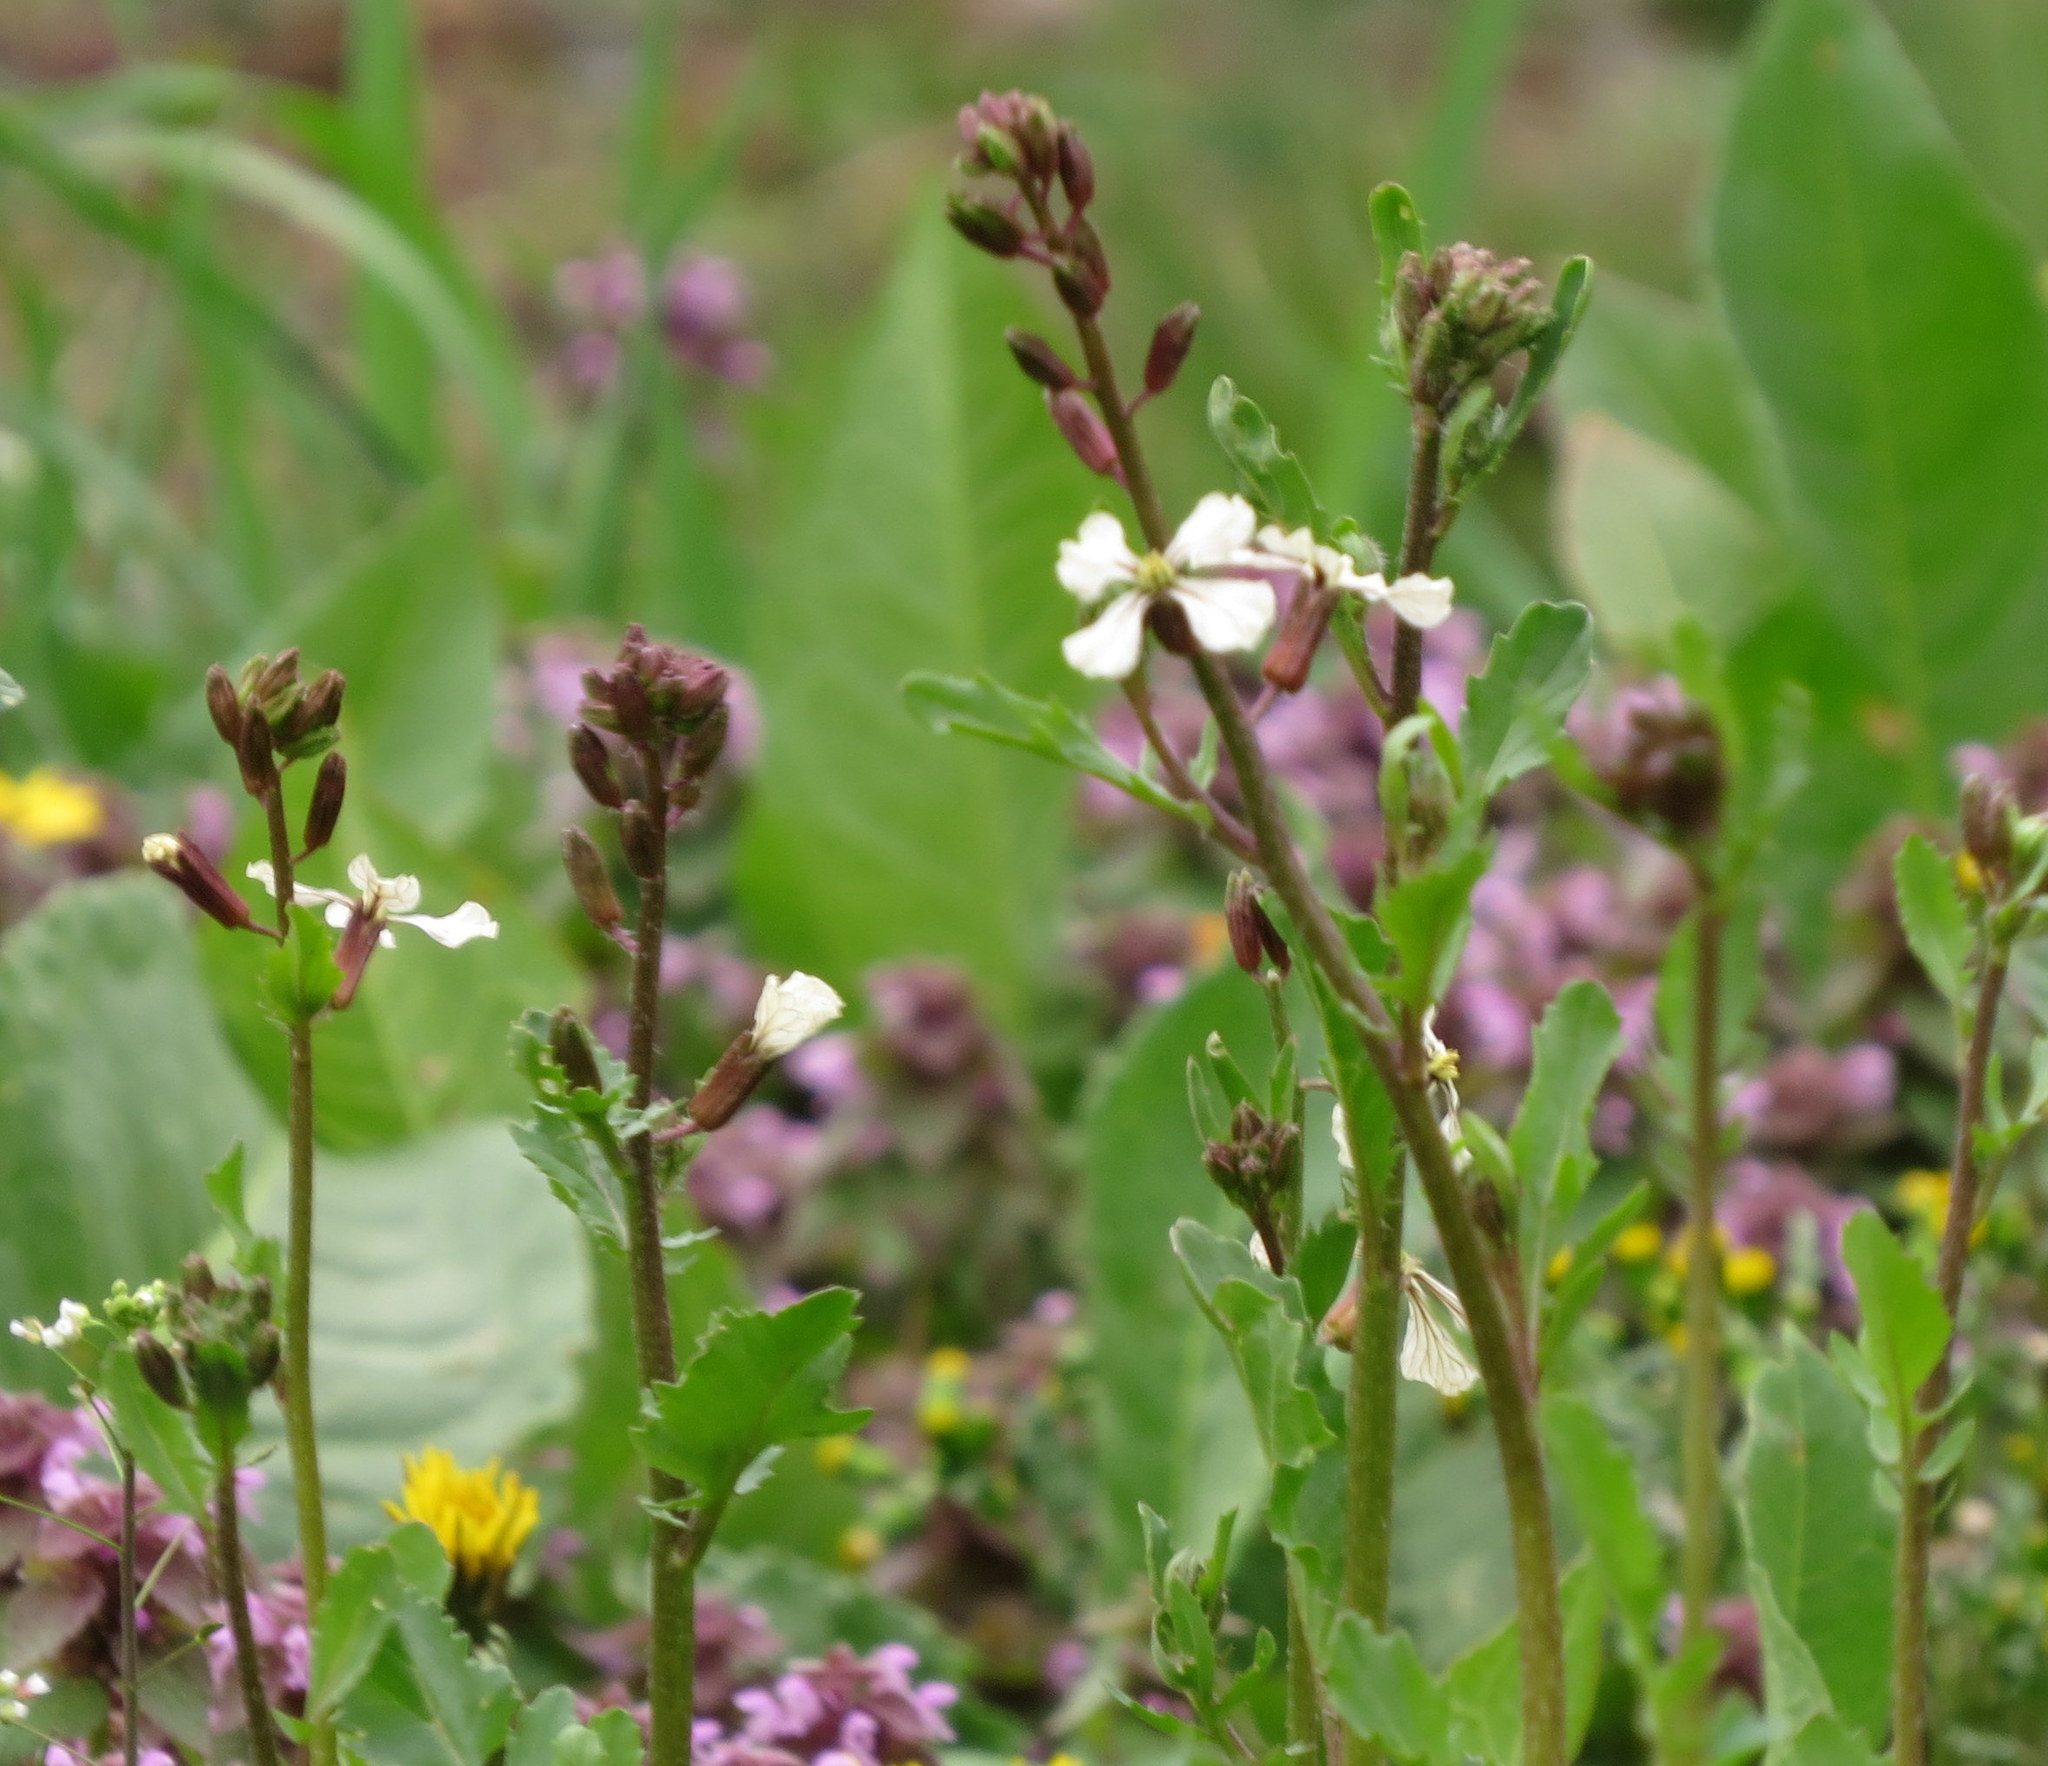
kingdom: Plantae
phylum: Tracheophyta
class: Magnoliopsida
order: Brassicales
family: Brassicaceae
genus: Eruca
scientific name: Eruca vesicaria
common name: Garden rocket
